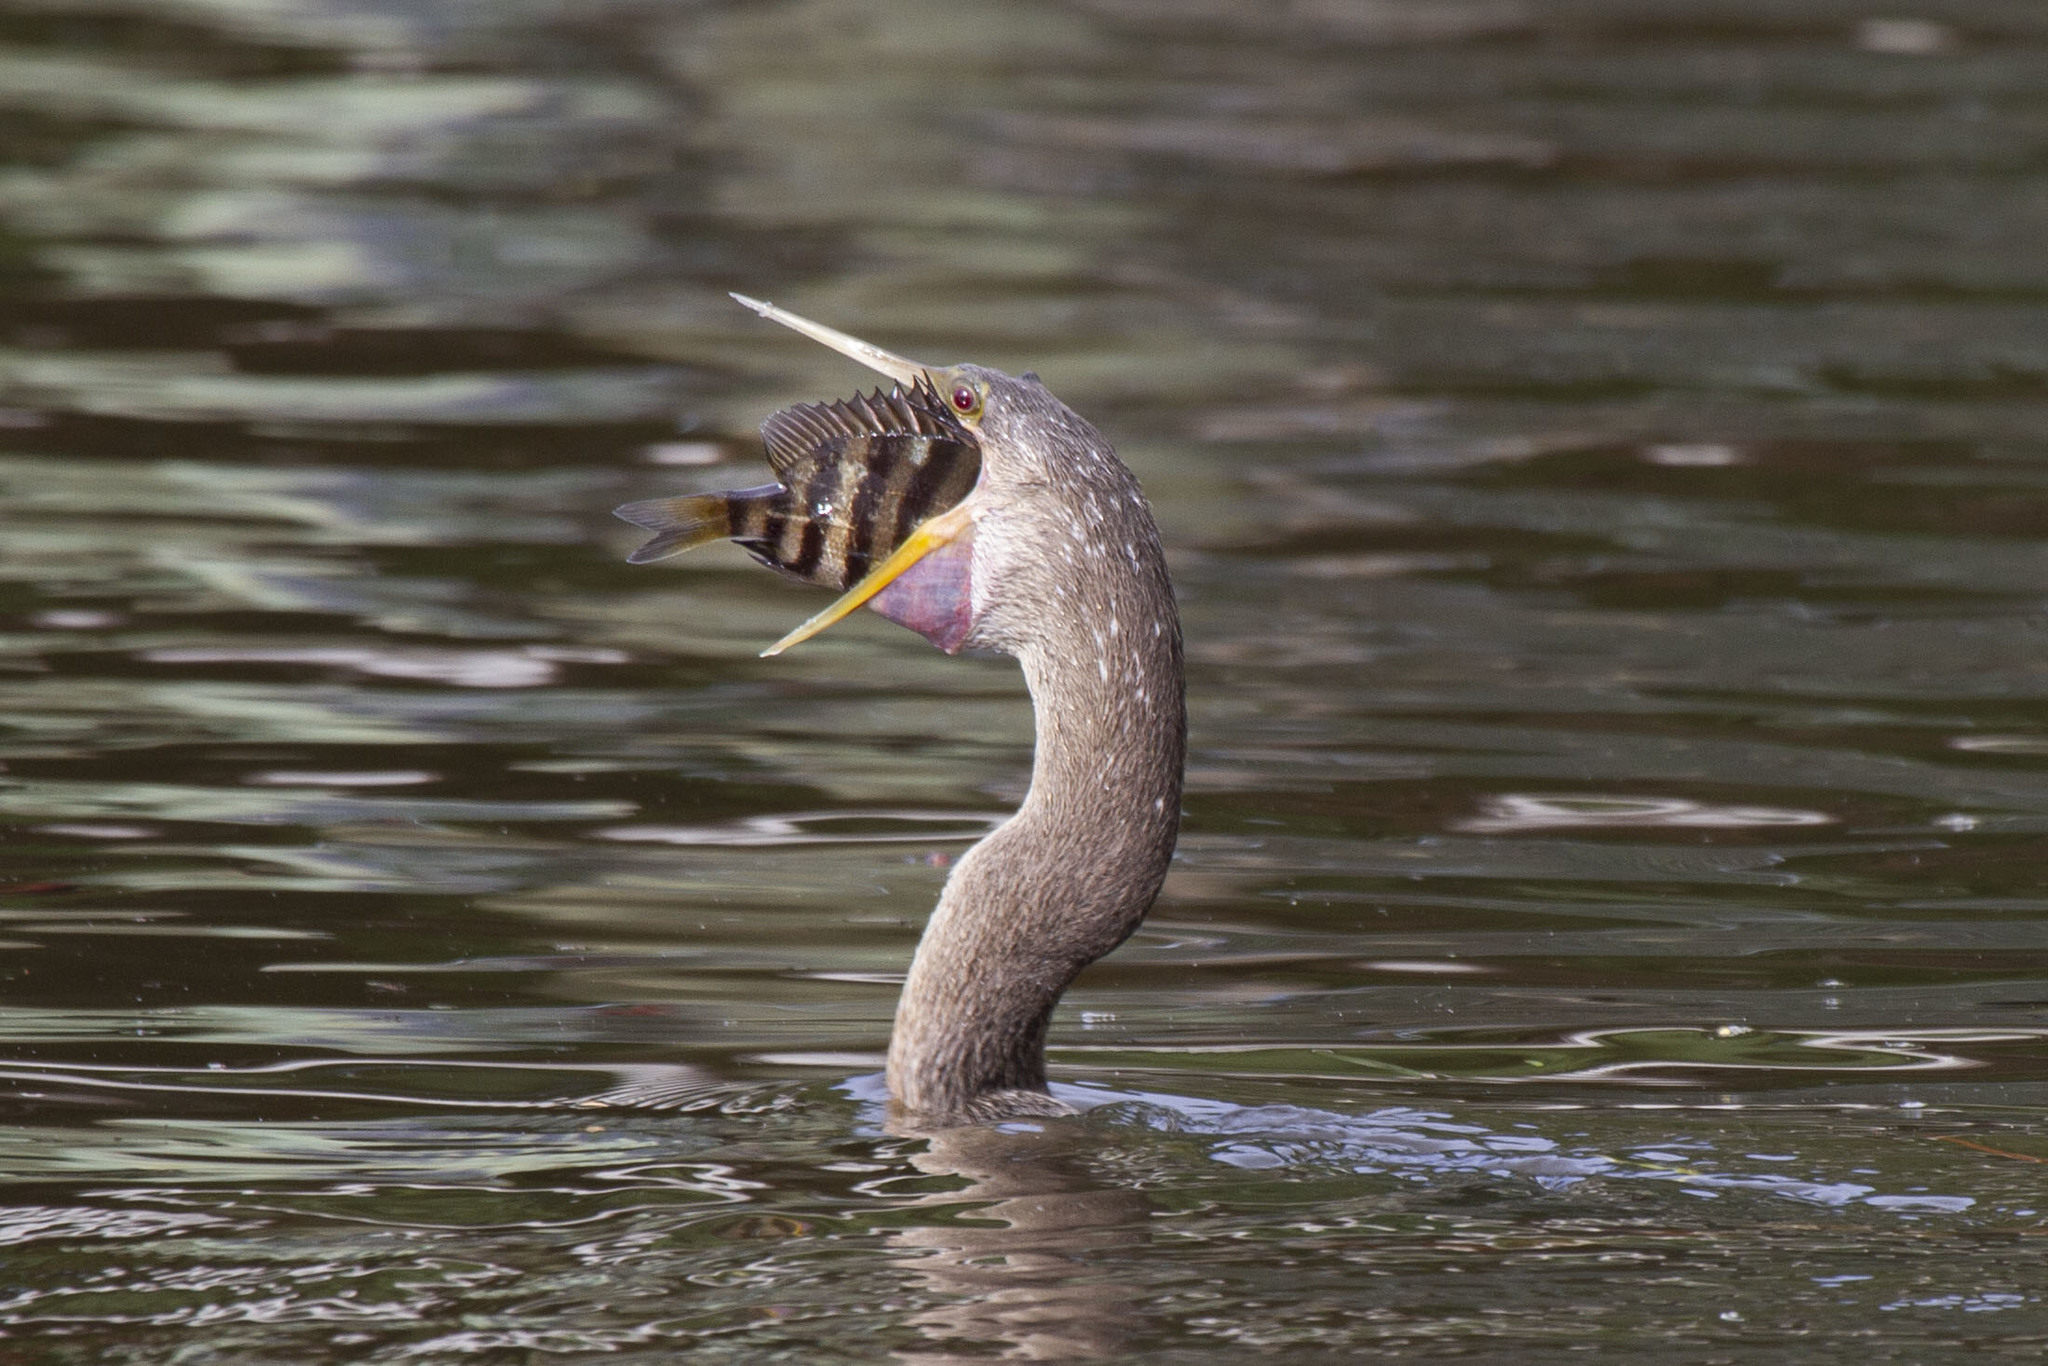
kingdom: Animalia
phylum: Chordata
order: Perciformes
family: Sparidae
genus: Archosargus
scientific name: Archosargus probatocephalus
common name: Sheepshead
